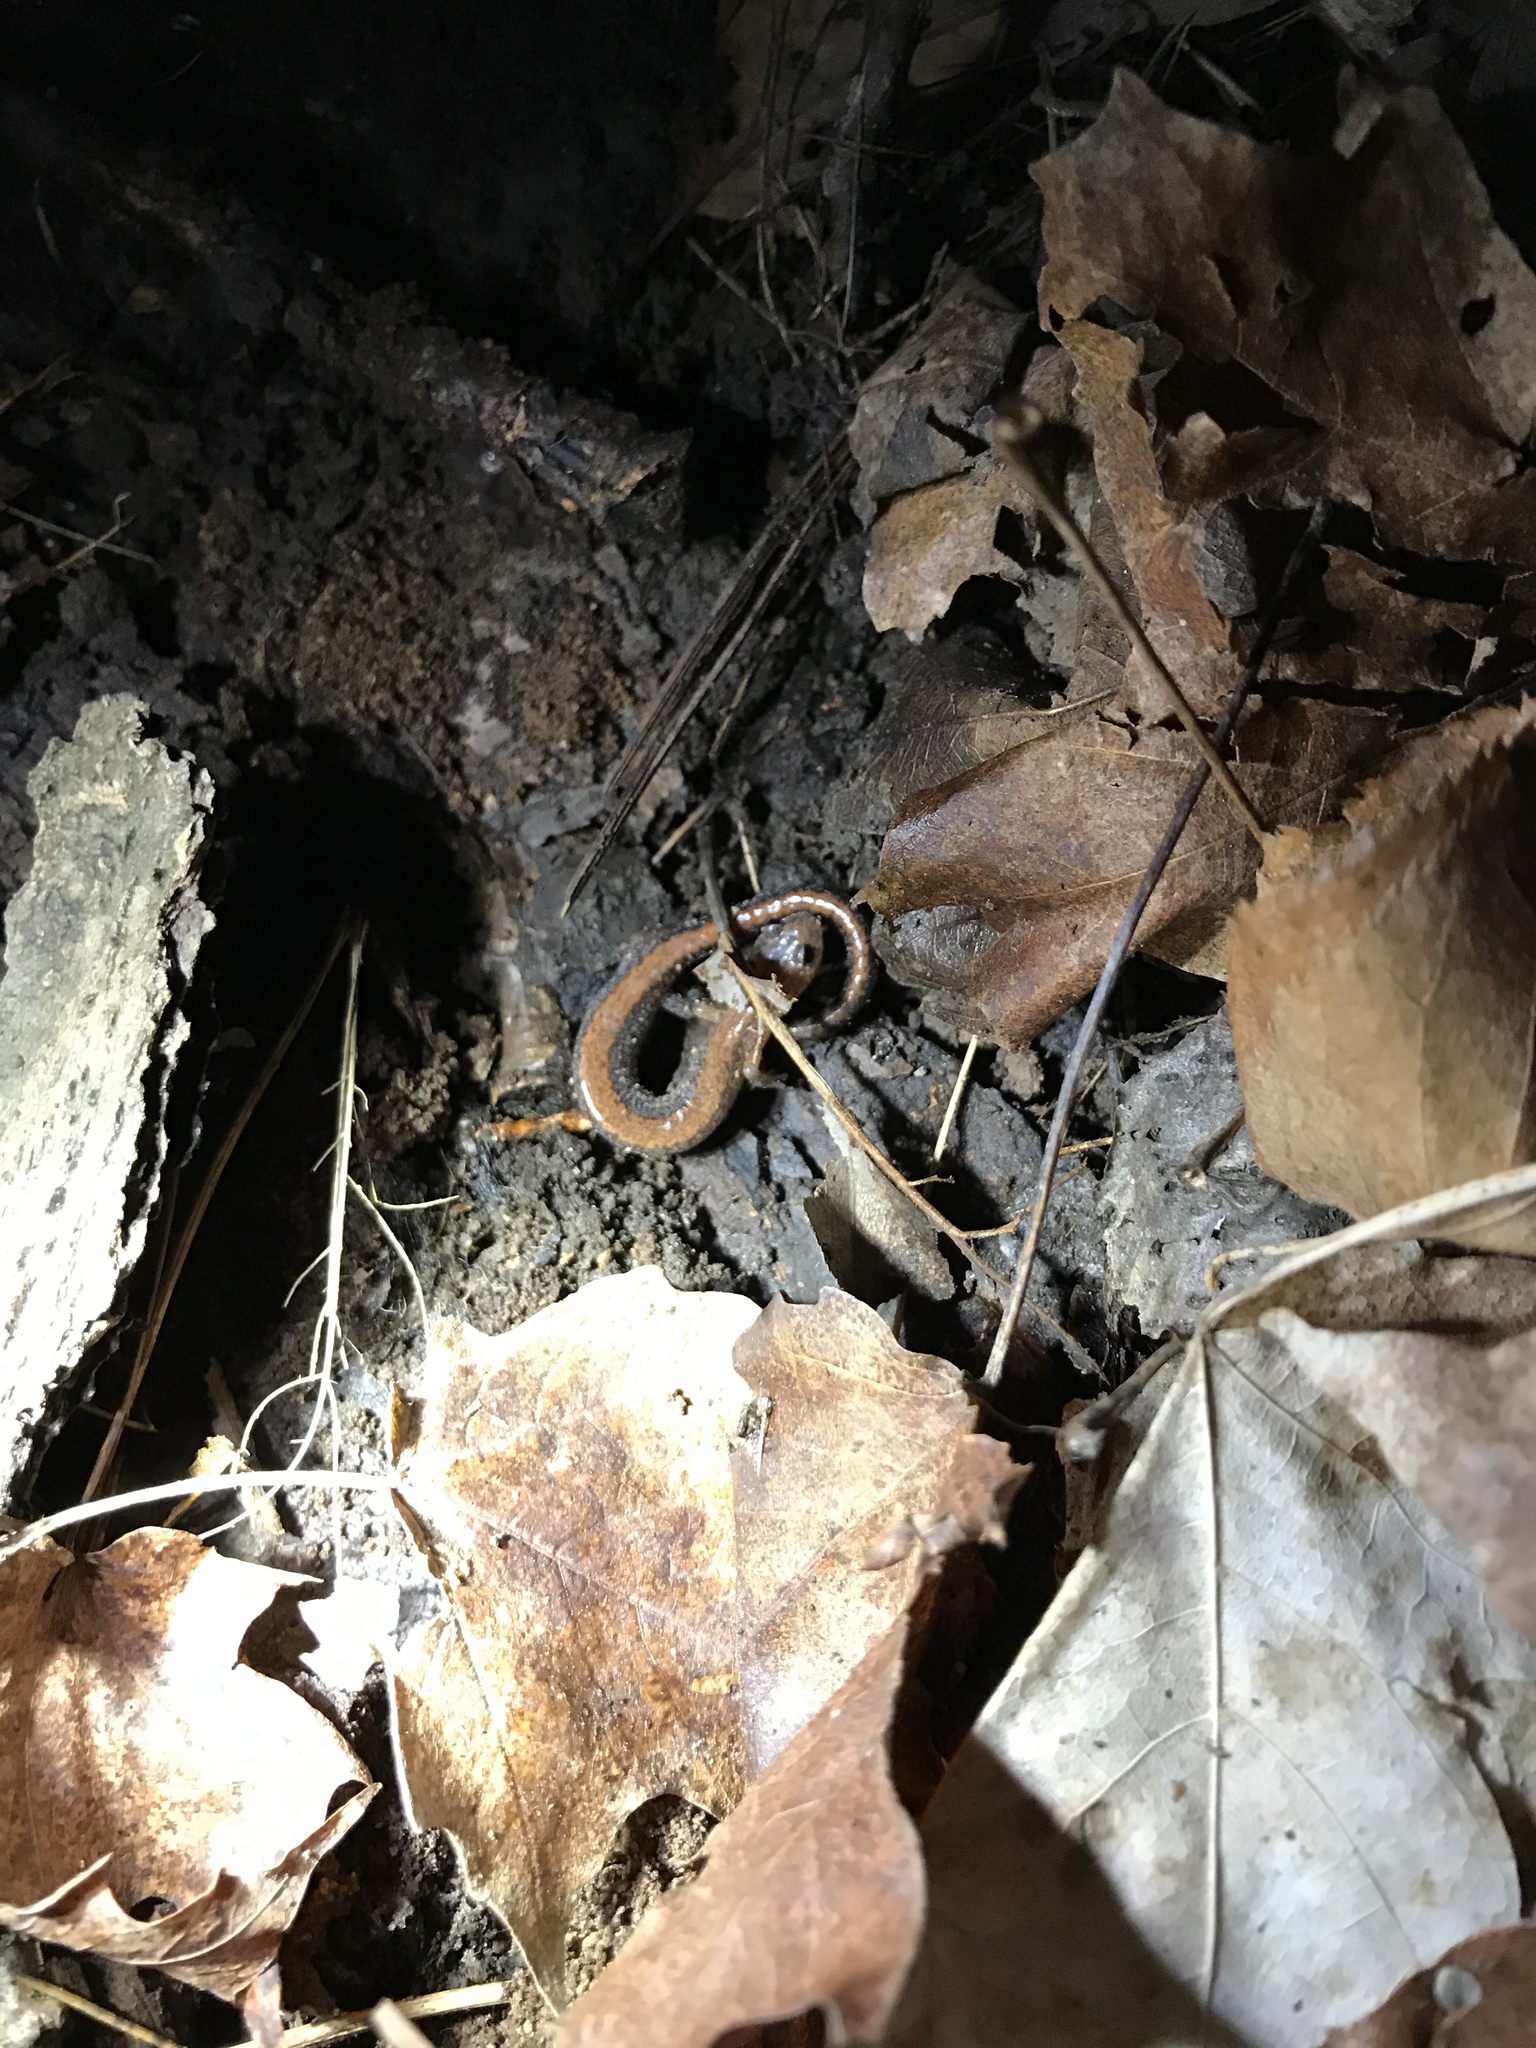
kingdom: Animalia
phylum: Chordata
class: Amphibia
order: Caudata
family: Plethodontidae
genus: Plethodon
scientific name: Plethodon cinereus
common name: Redback salamander
